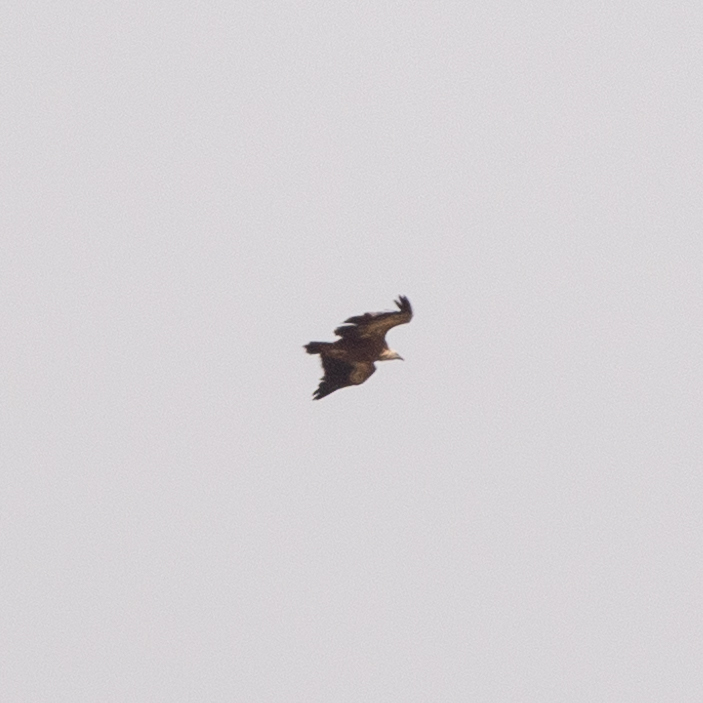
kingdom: Animalia
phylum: Chordata
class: Aves
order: Accipitriformes
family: Accipitridae
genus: Gyps
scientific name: Gyps fulvus
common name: Griffon vulture
